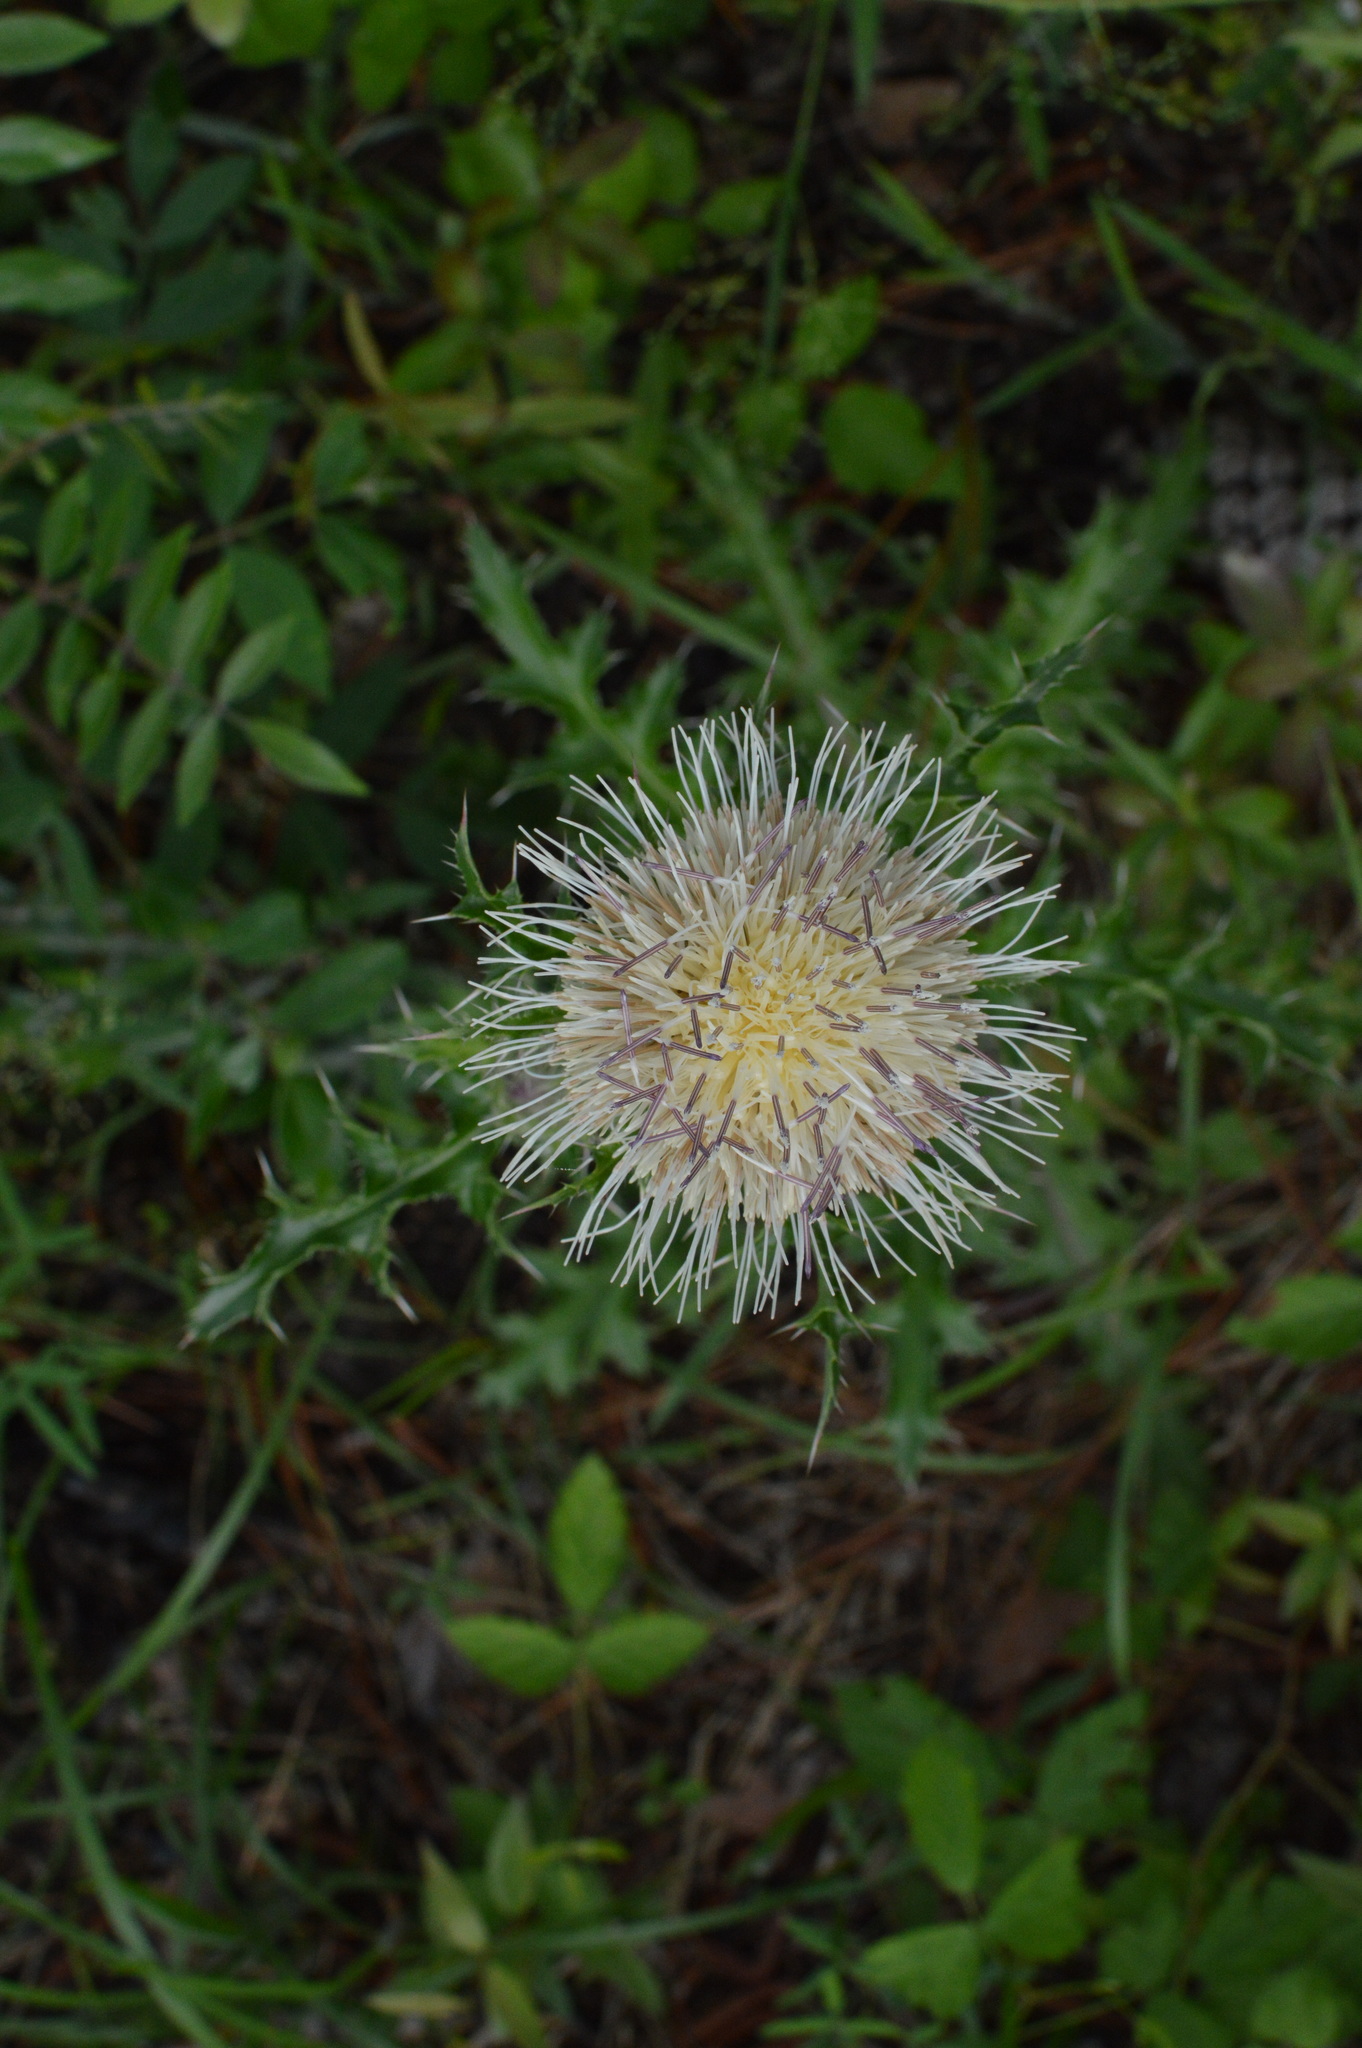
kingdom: Plantae
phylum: Tracheophyta
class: Magnoliopsida
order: Asterales
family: Asteraceae
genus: Cirsium
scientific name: Cirsium horridulum
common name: Bristly thistle
